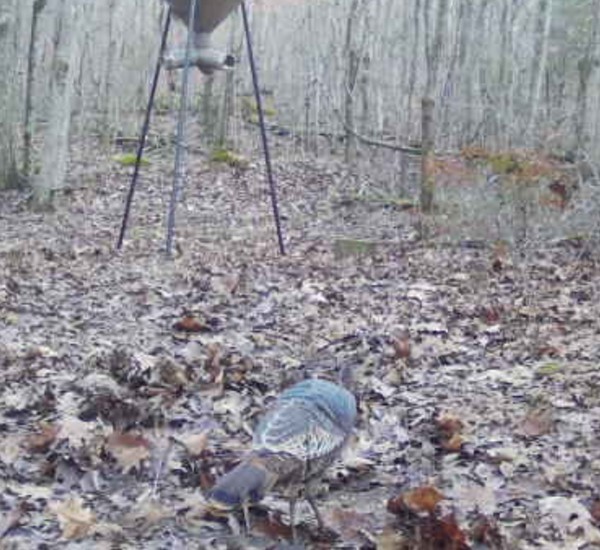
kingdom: Animalia
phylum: Chordata
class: Aves
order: Galliformes
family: Phasianidae
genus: Meleagris
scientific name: Meleagris gallopavo
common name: Wild turkey
